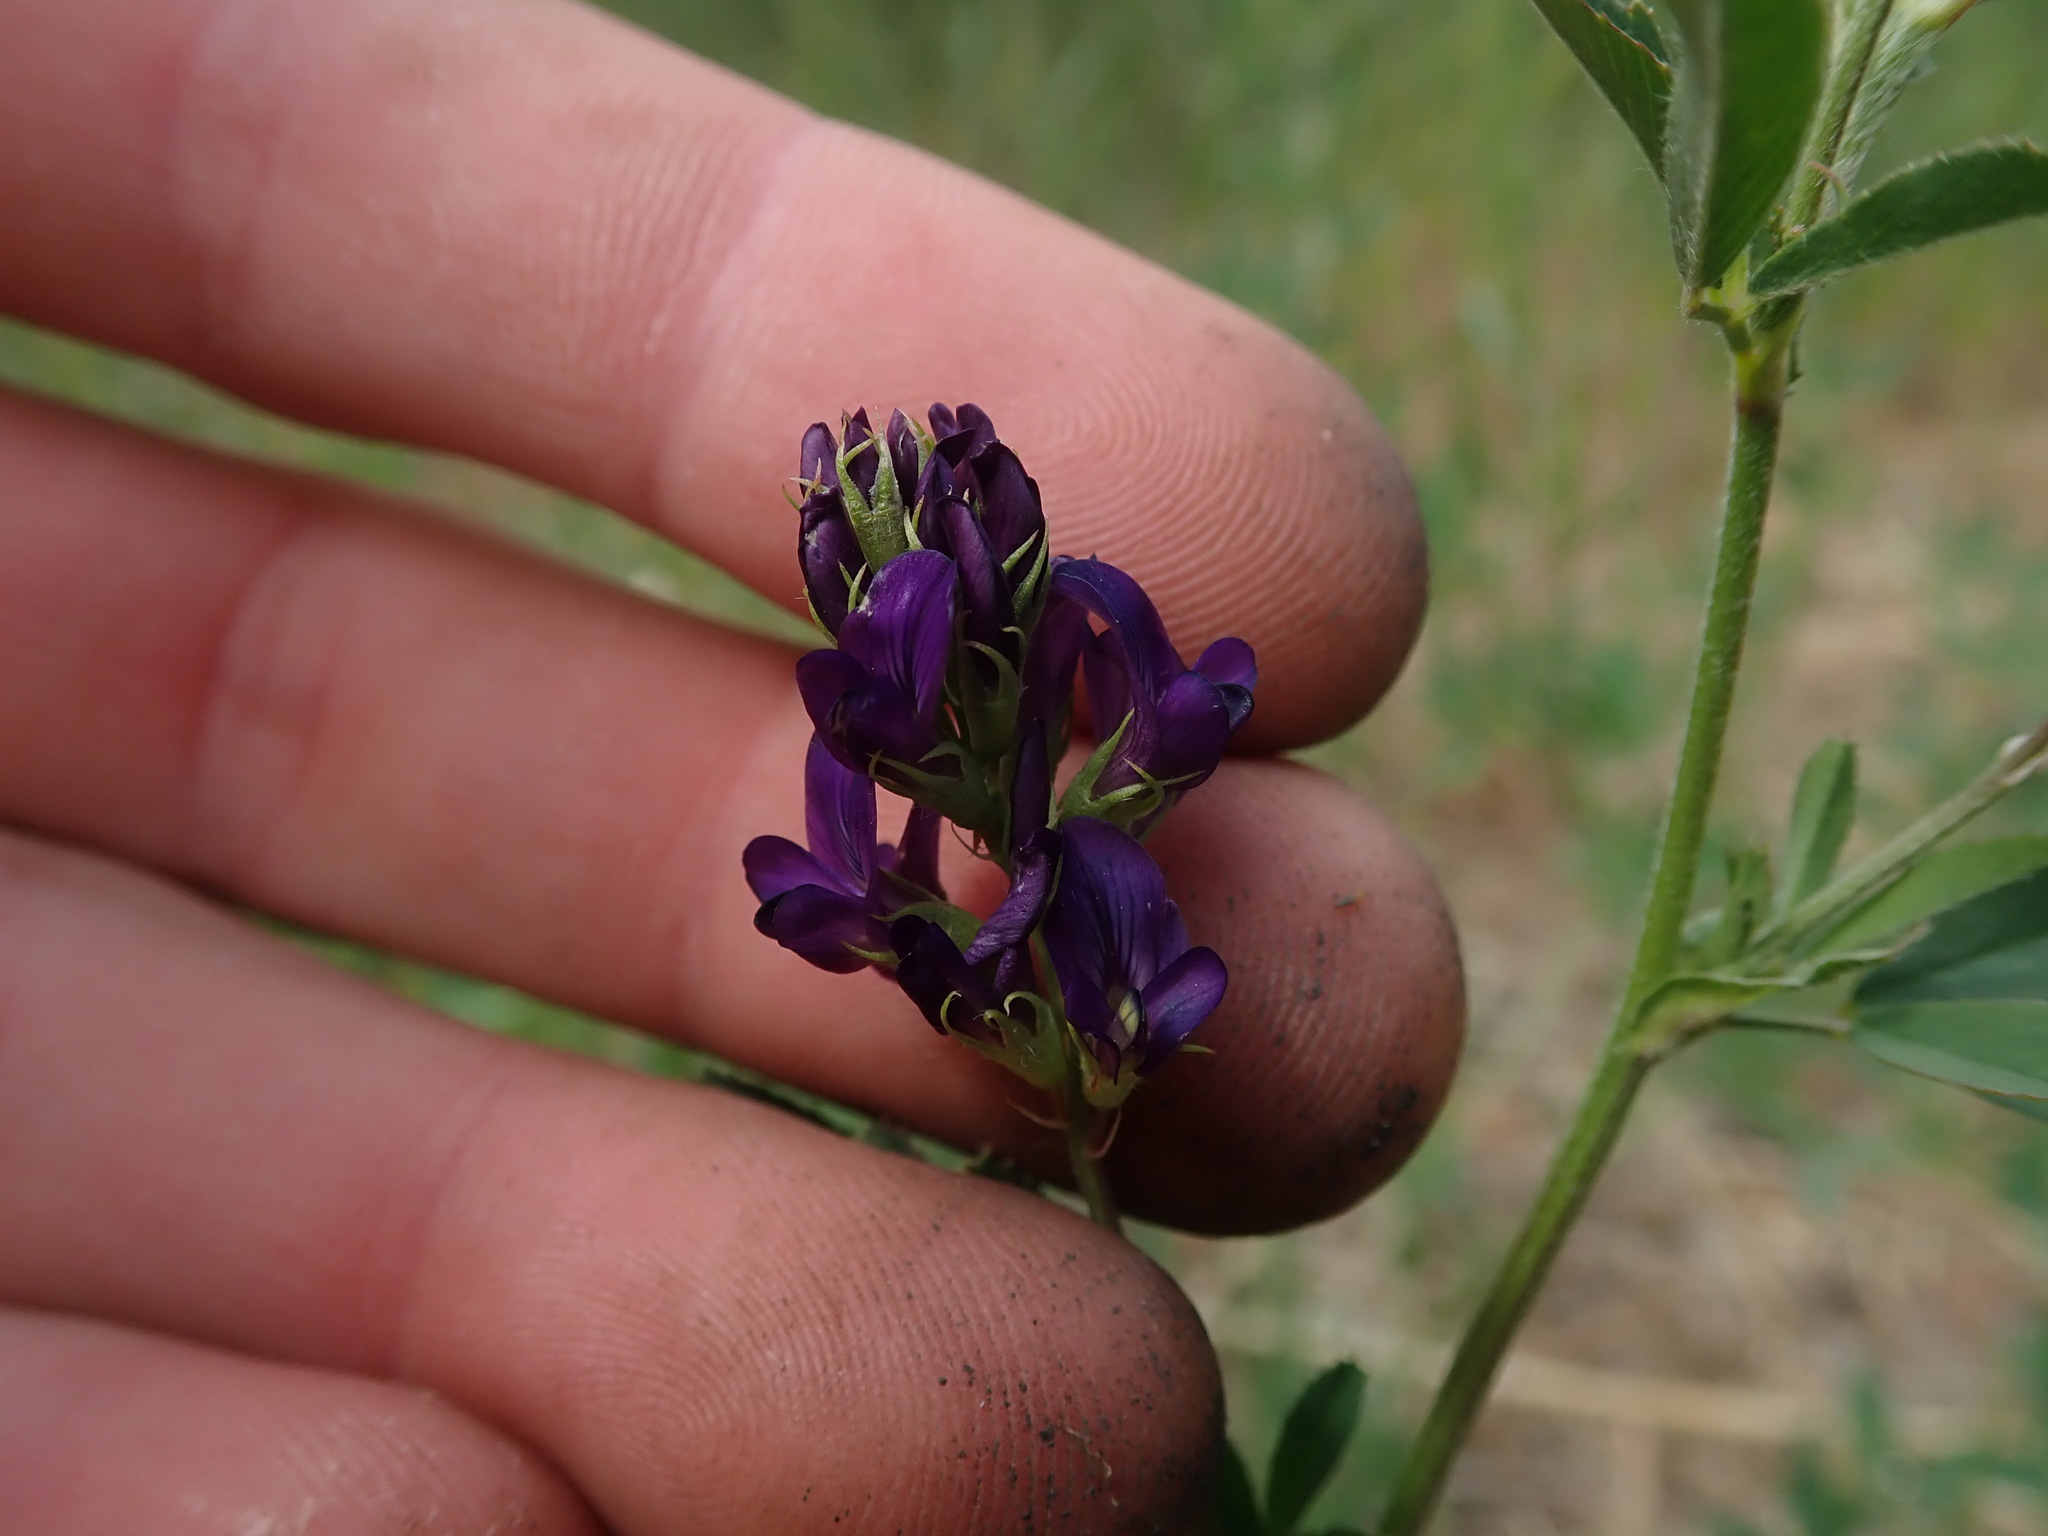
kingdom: Plantae
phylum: Tracheophyta
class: Magnoliopsida
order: Fabales
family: Fabaceae
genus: Medicago
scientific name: Medicago sativa
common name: Alfalfa
